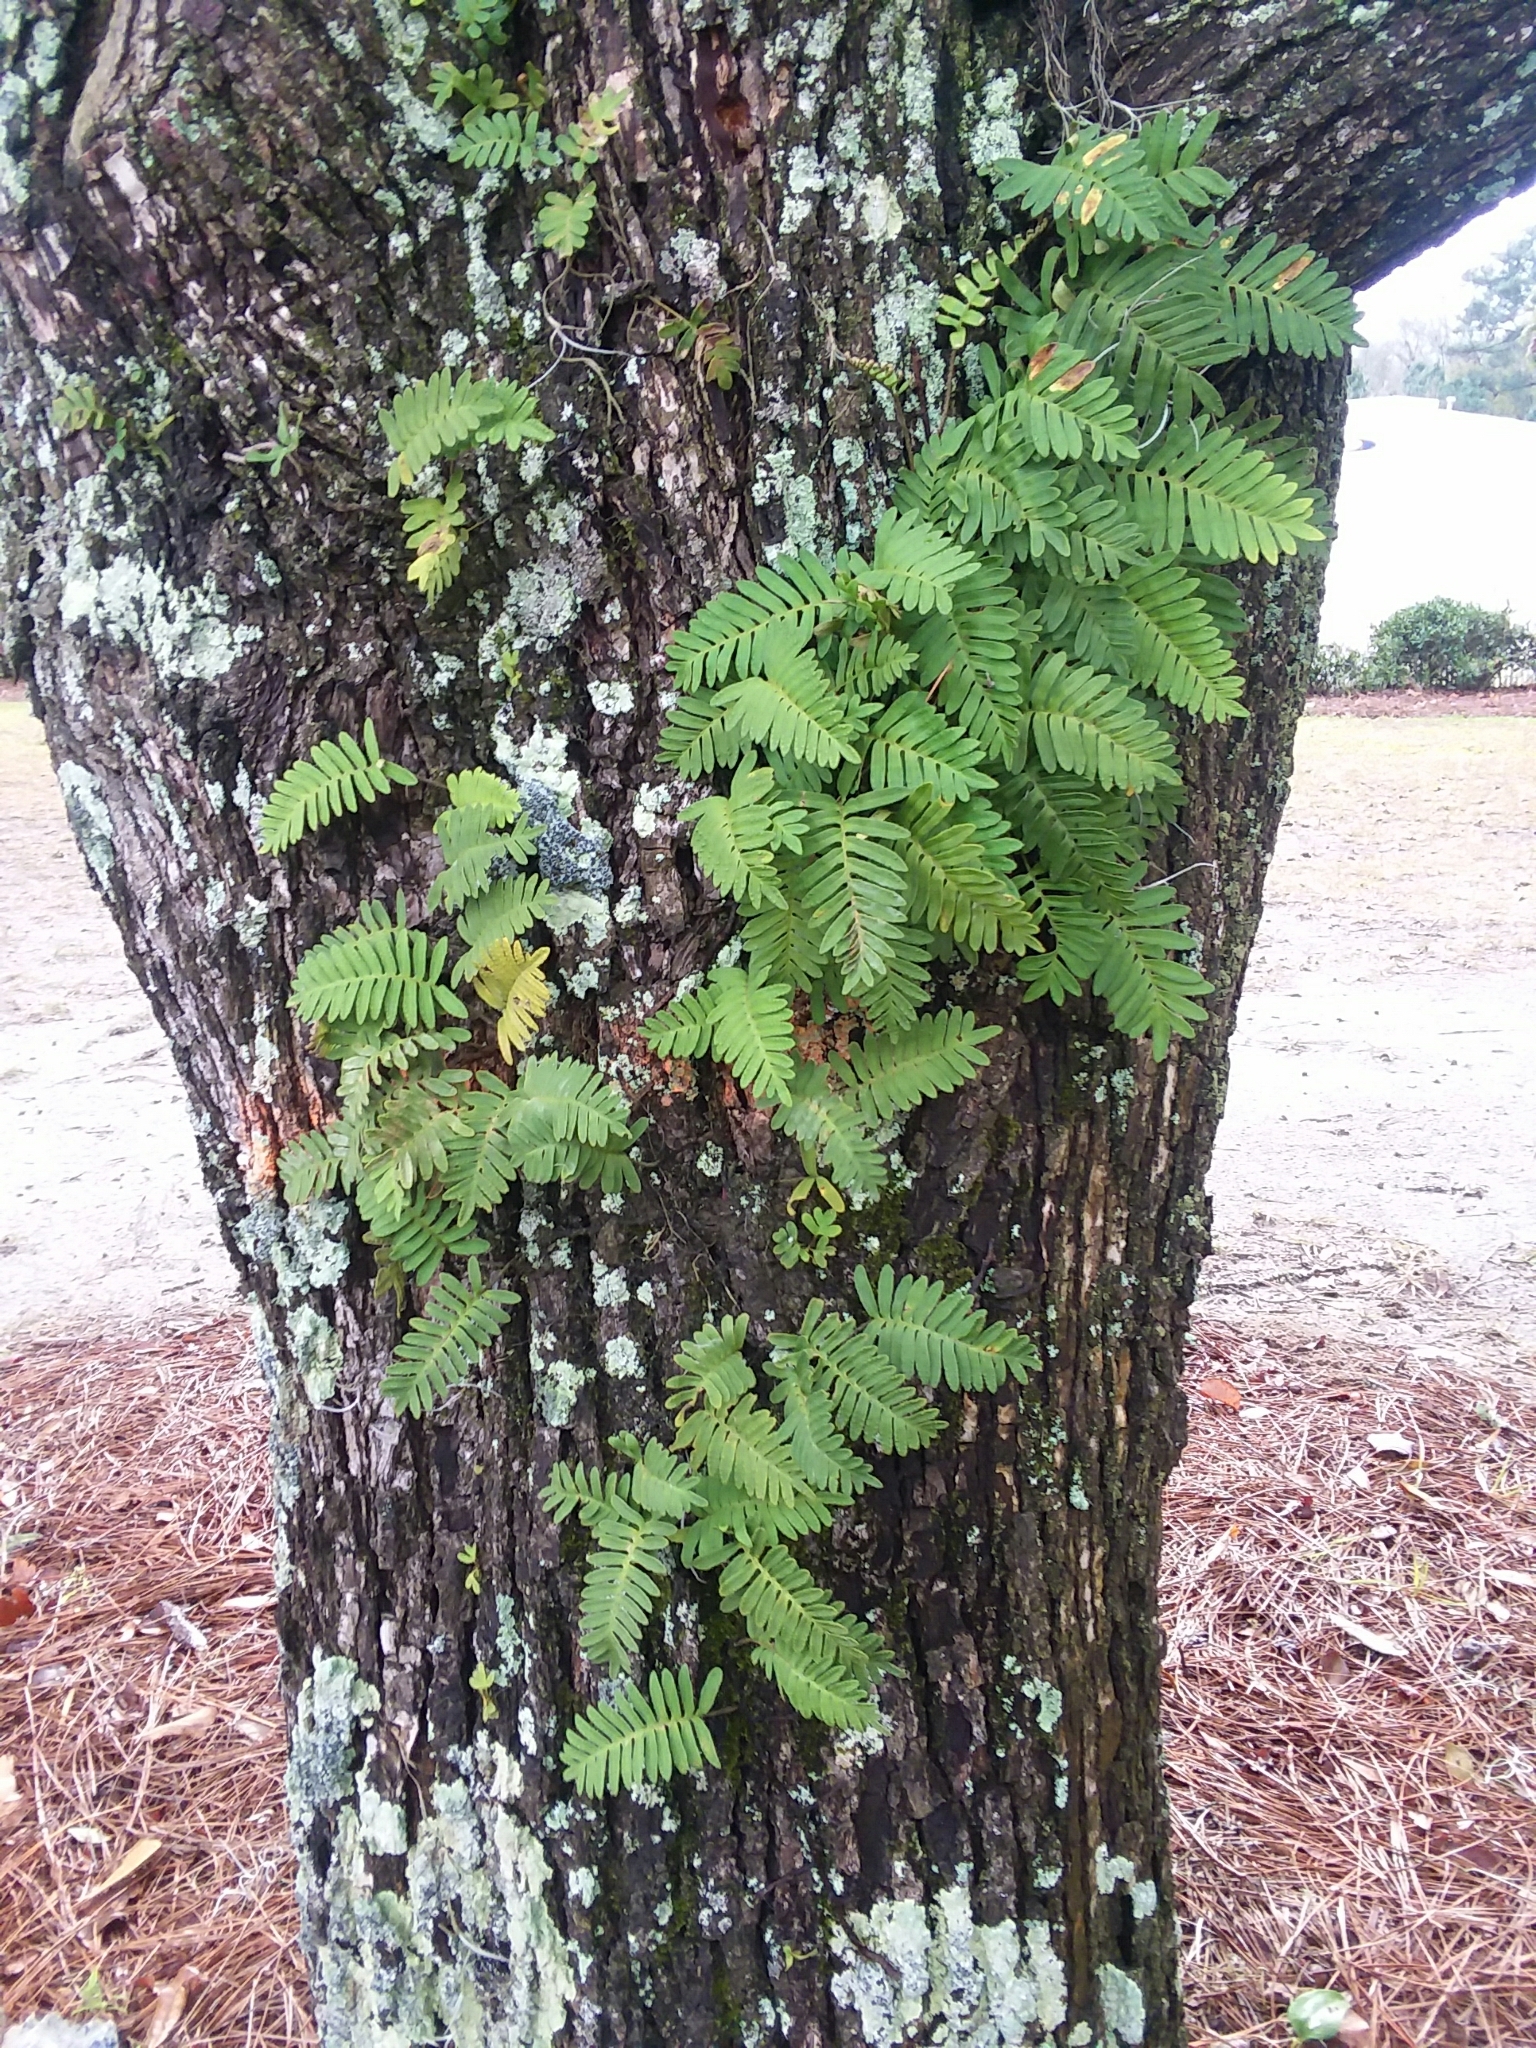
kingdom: Plantae
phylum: Tracheophyta
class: Polypodiopsida
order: Polypodiales
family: Polypodiaceae
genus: Pleopeltis
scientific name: Pleopeltis michauxiana
